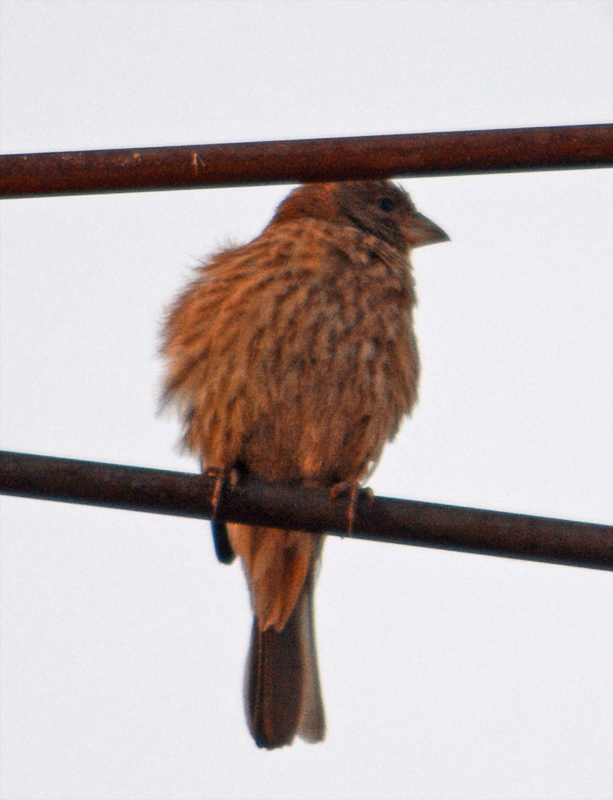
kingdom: Animalia
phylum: Chordata
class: Aves
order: Passeriformes
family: Fringillidae
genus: Haemorhous
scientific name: Haemorhous mexicanus
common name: House finch
